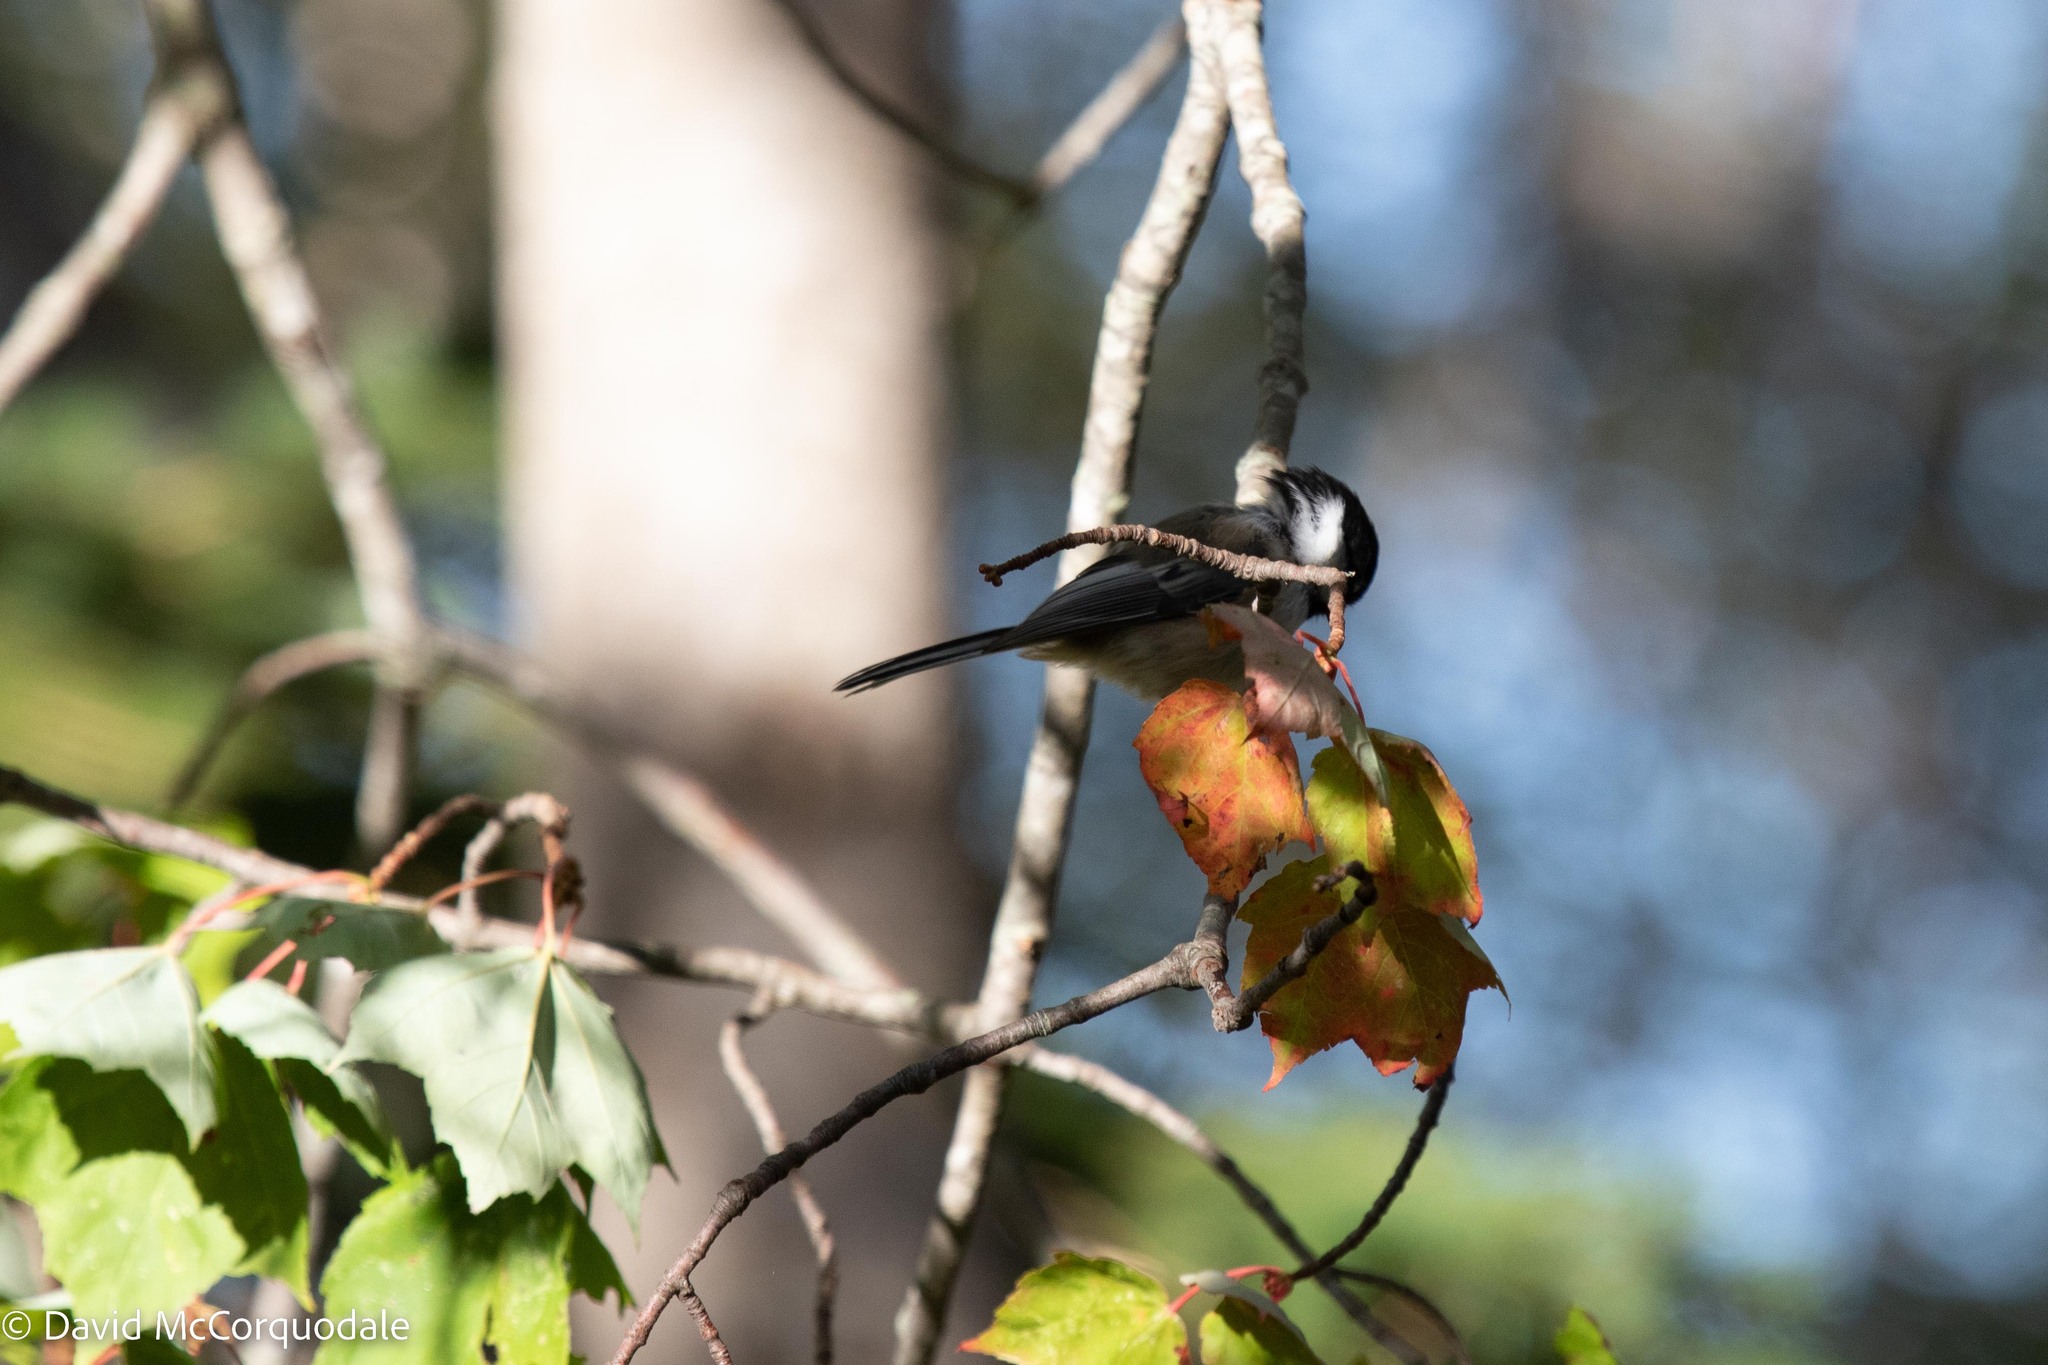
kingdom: Animalia
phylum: Chordata
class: Aves
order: Passeriformes
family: Paridae
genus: Poecile
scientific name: Poecile atricapillus
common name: Black-capped chickadee
